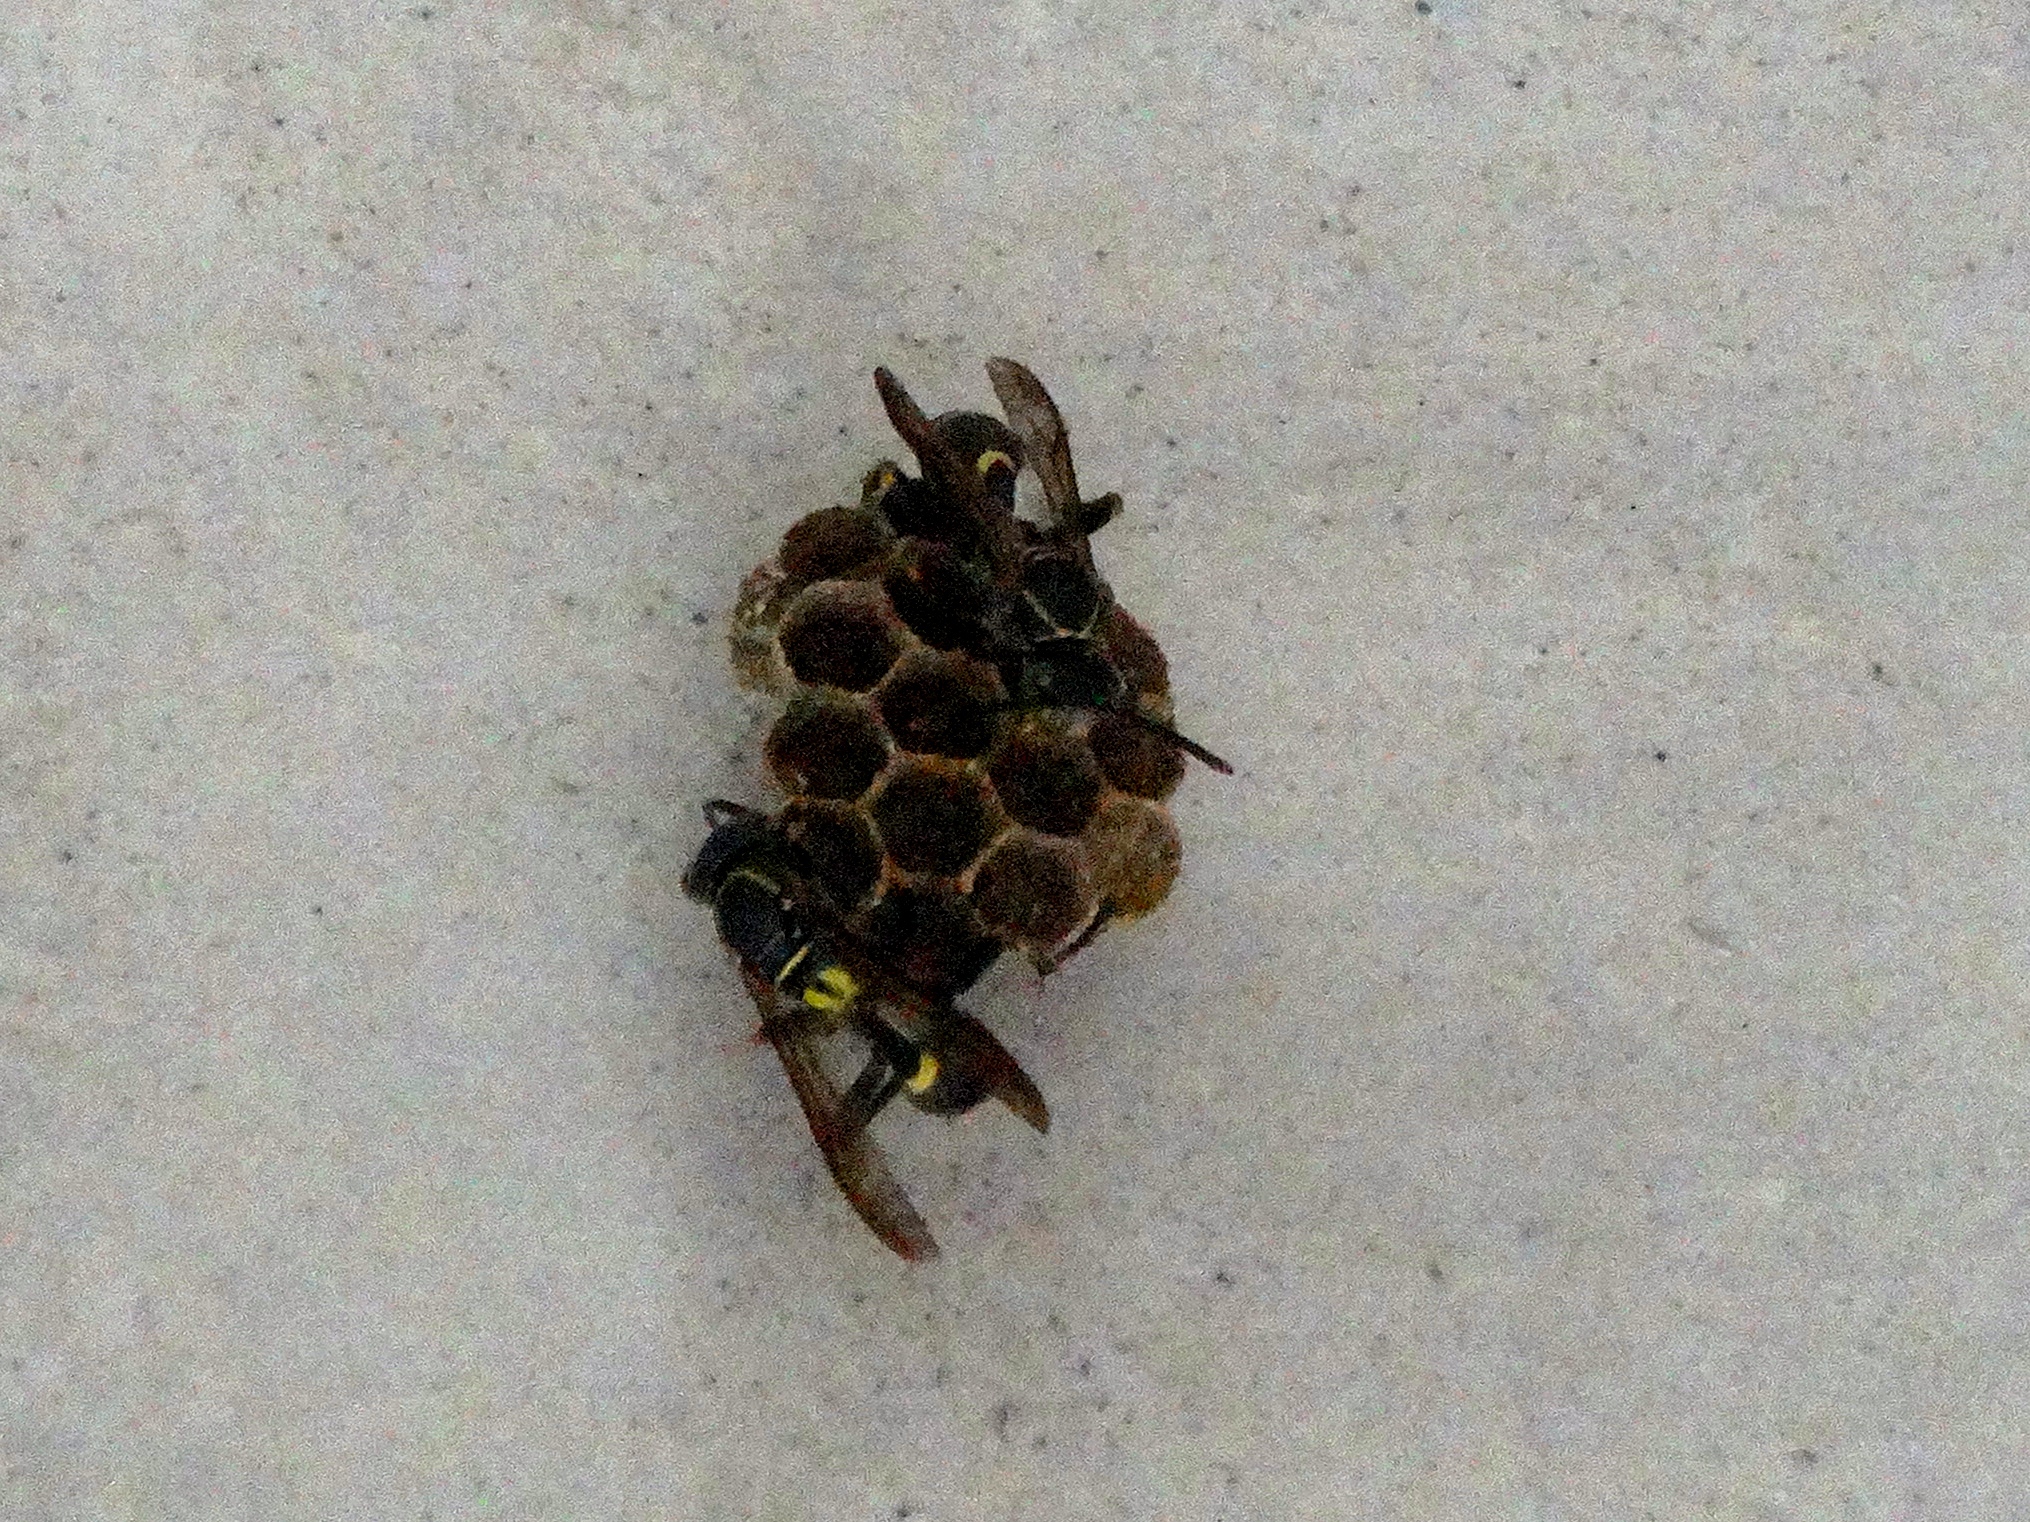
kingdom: Animalia
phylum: Arthropoda
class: Insecta
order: Hymenoptera
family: Vespidae
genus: Mischocyttarus
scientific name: Mischocyttarus
